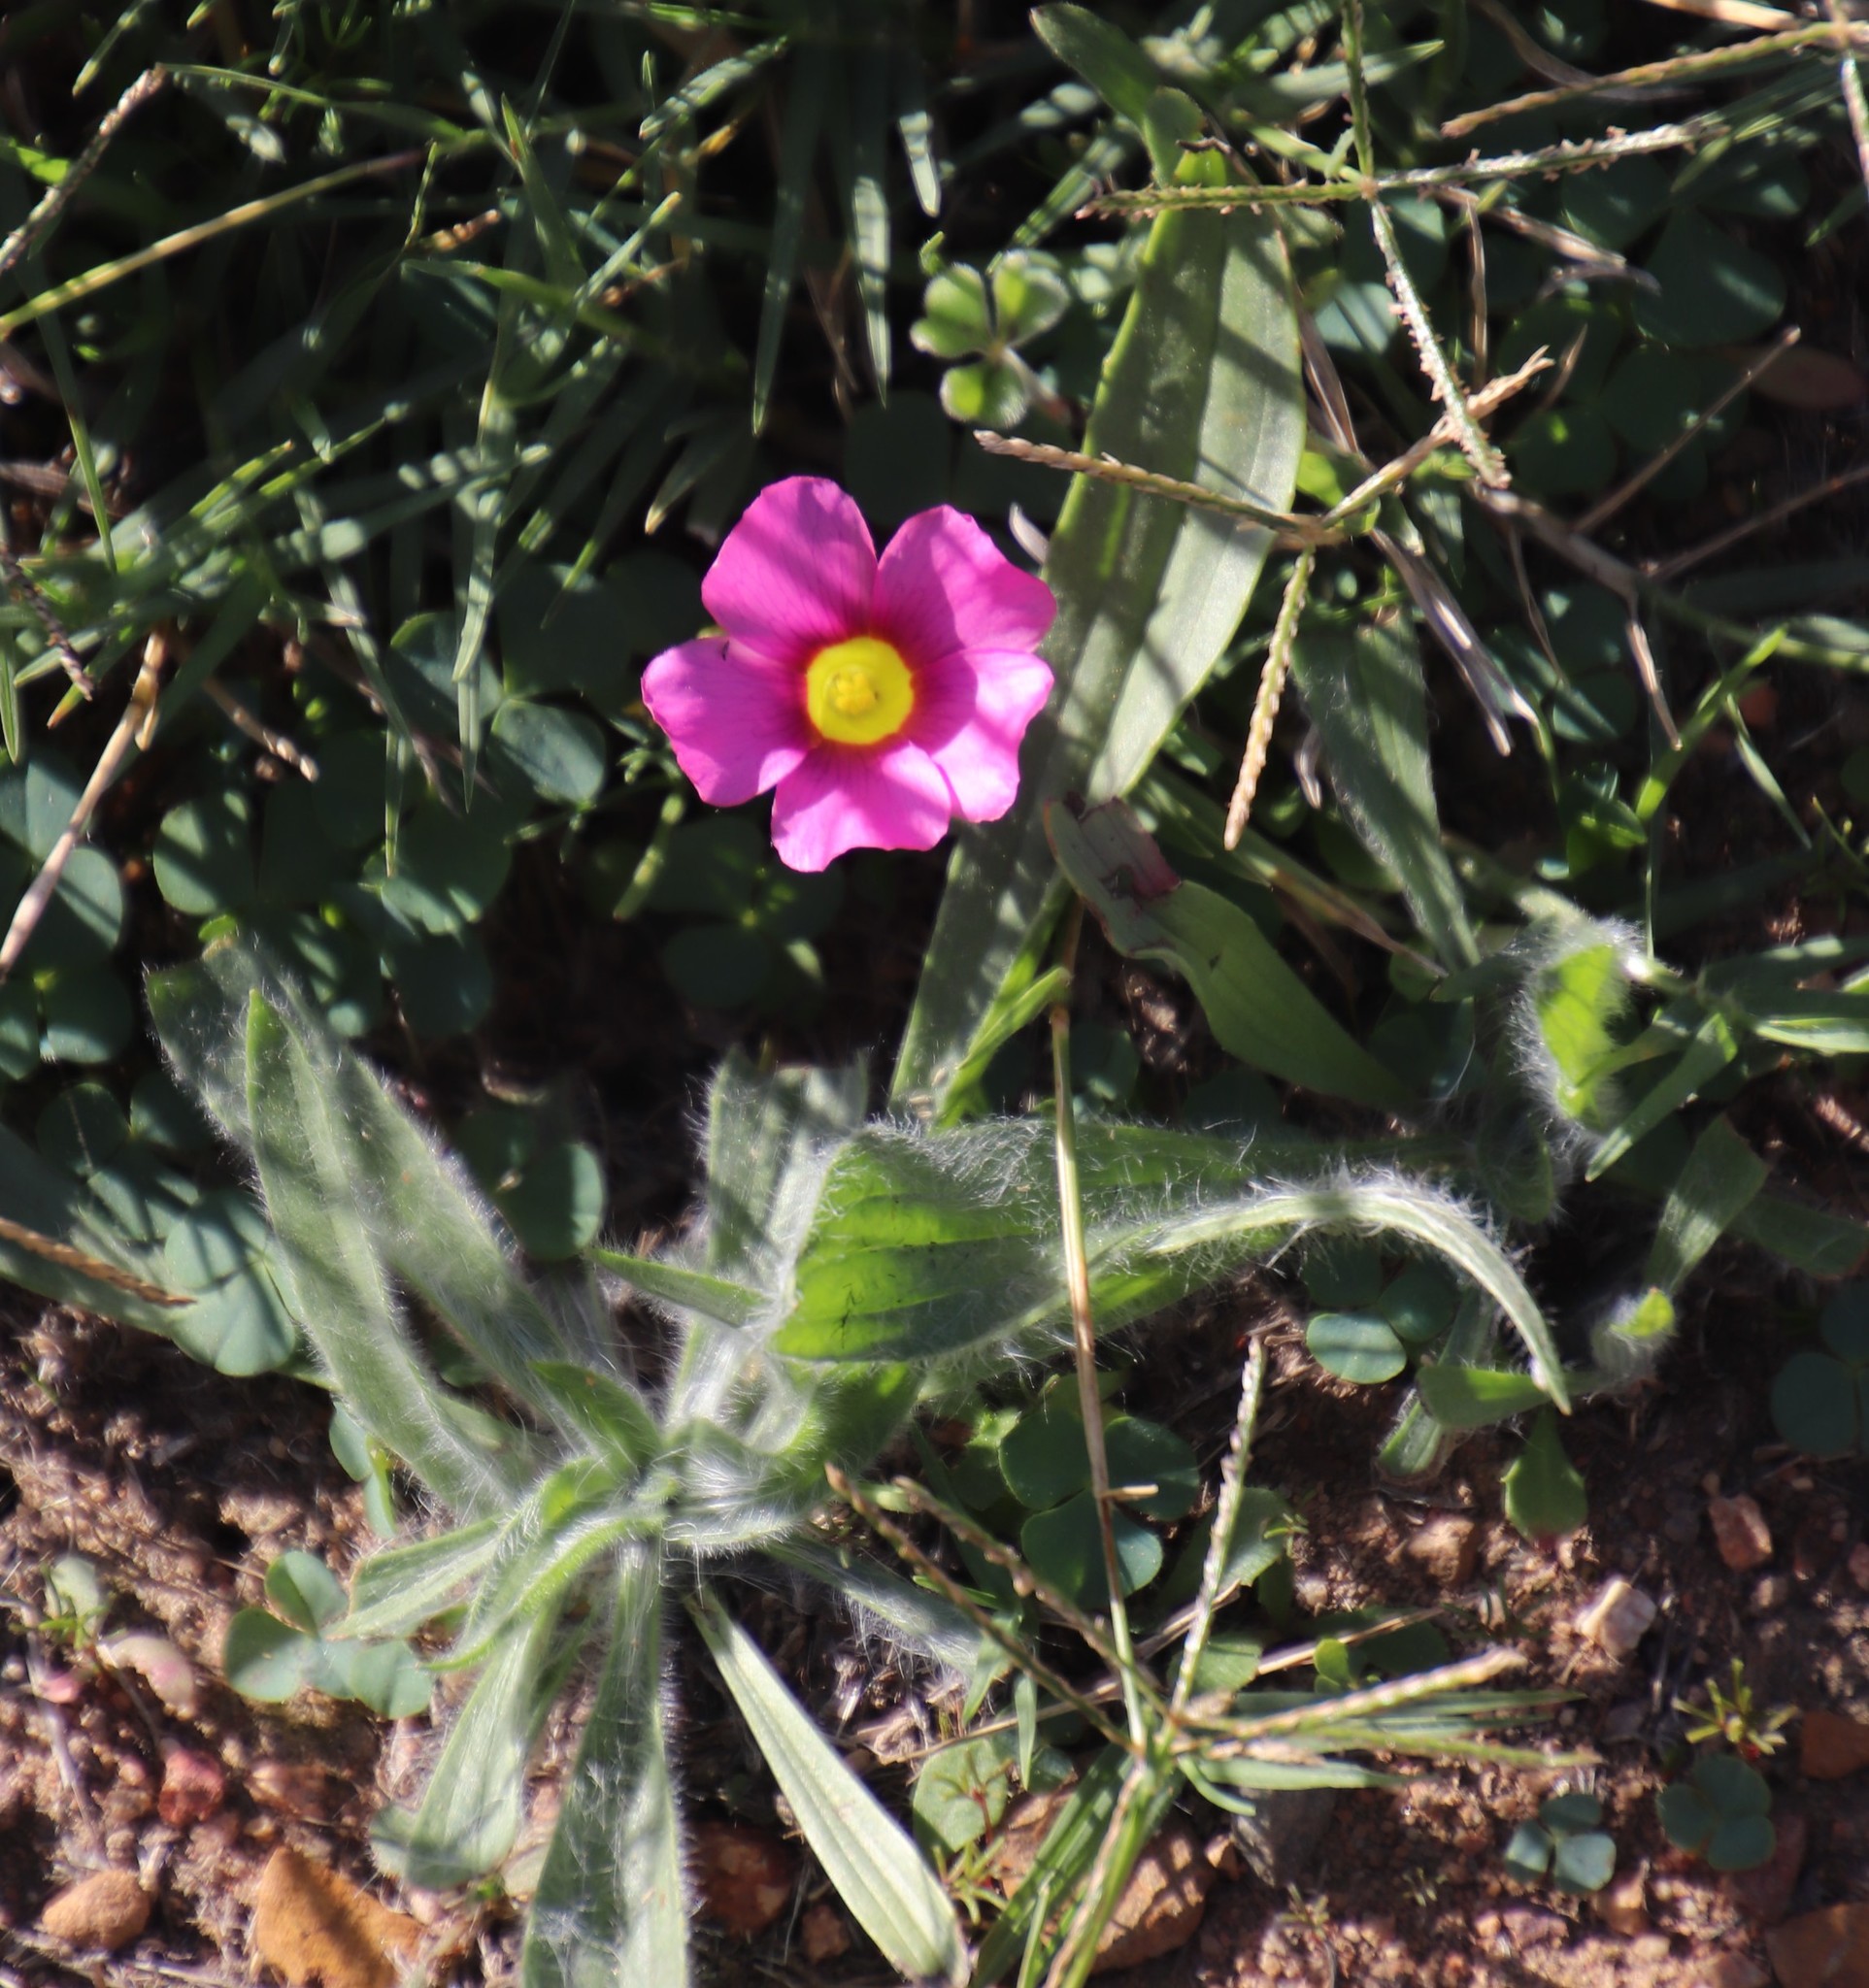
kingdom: Plantae
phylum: Tracheophyta
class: Magnoliopsida
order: Oxalidales
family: Oxalidaceae
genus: Oxalis
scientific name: Oxalis purpurea
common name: Purple woodsorrel
